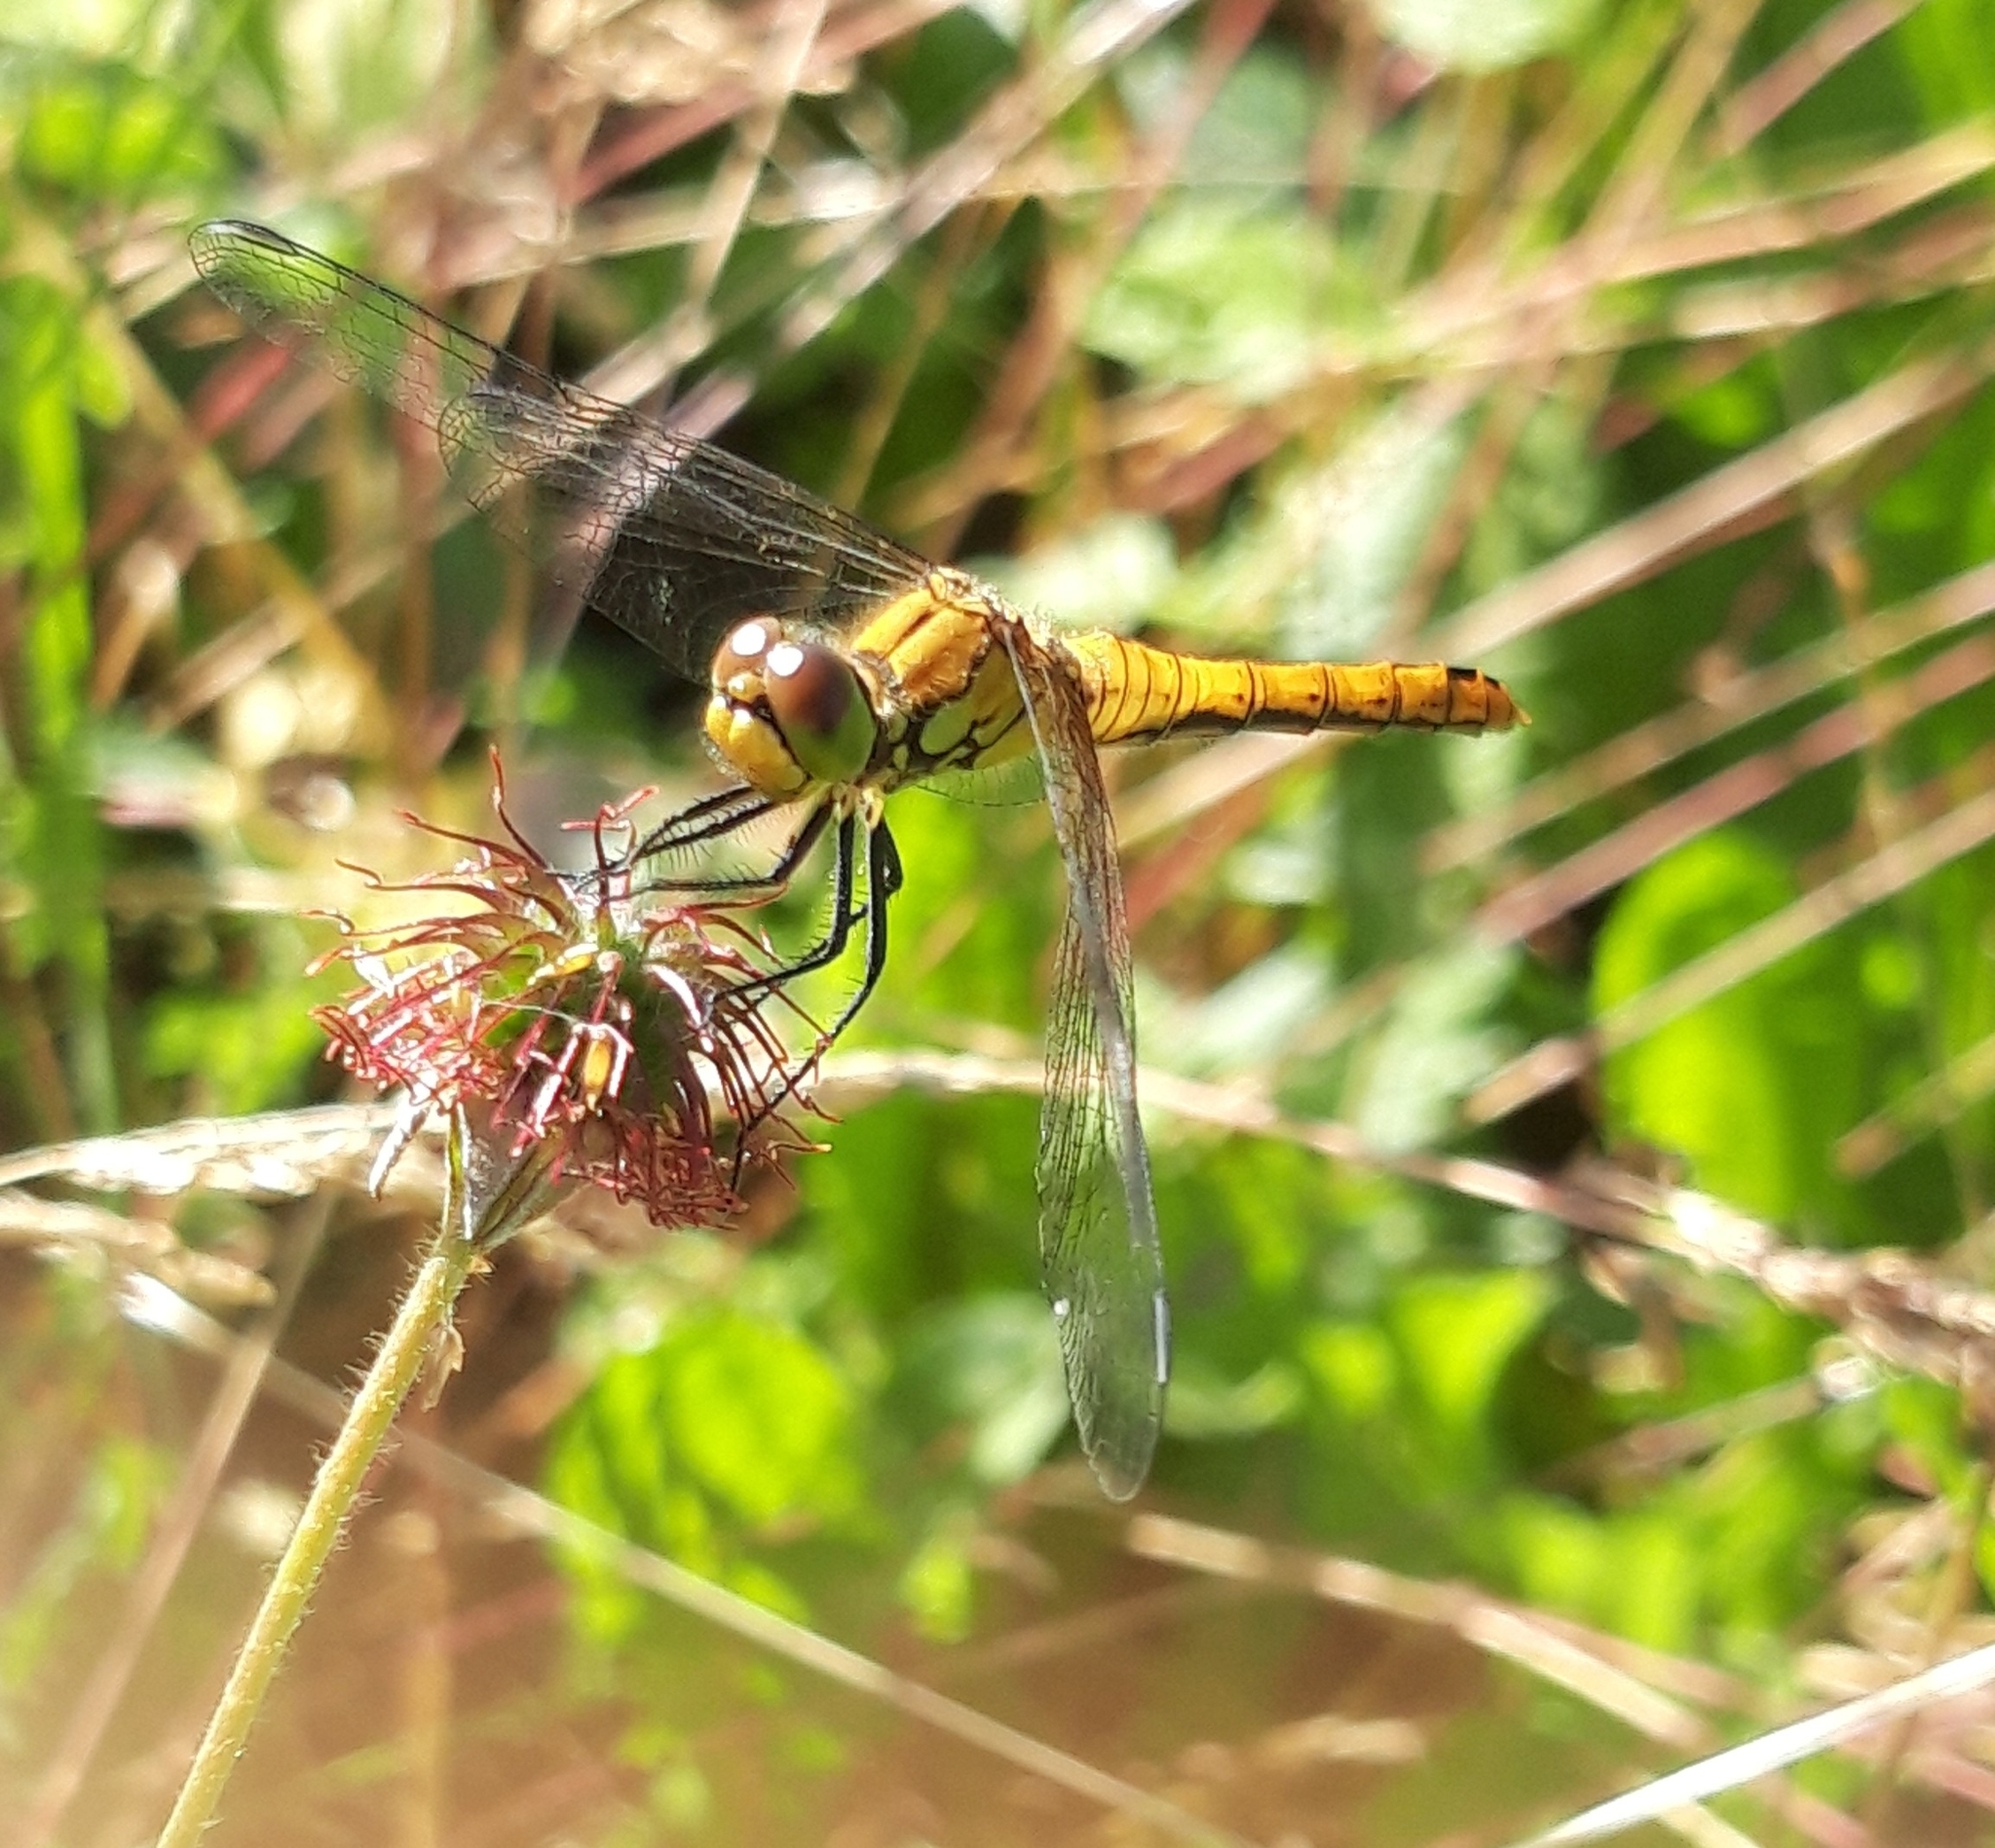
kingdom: Animalia
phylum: Arthropoda
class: Insecta
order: Odonata
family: Libellulidae
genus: Sympetrum
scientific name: Sympetrum sanguineum
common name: Ruddy darter
